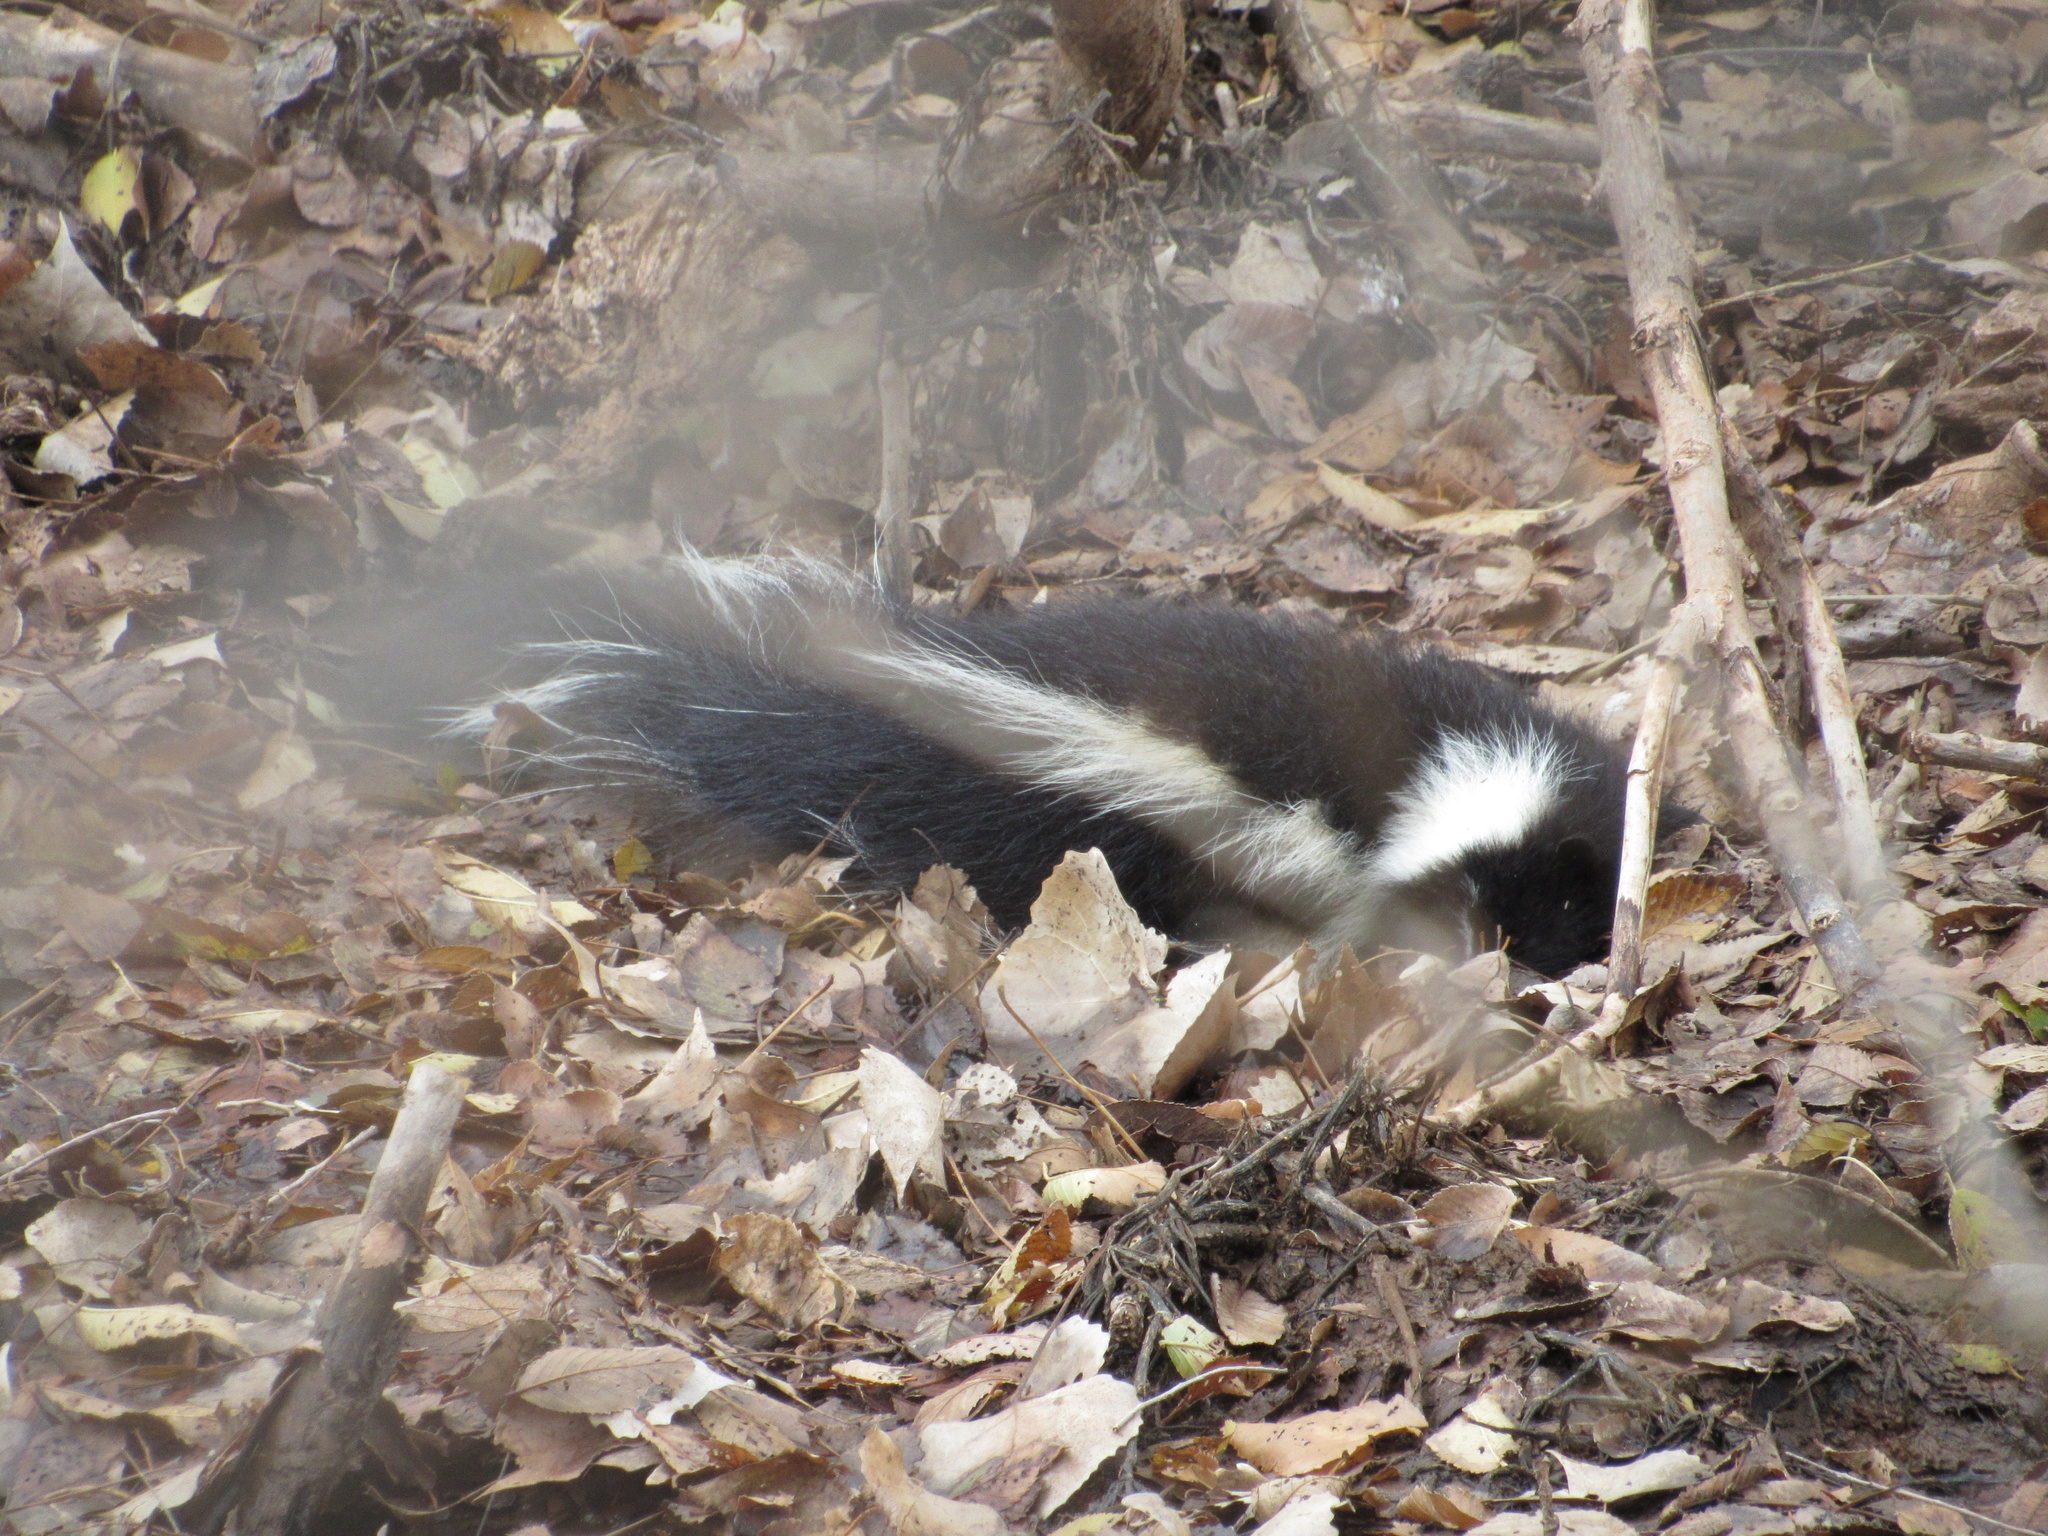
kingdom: Animalia
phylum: Chordata
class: Mammalia
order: Carnivora
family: Mephitidae
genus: Mephitis
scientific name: Mephitis mephitis
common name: Striped skunk
